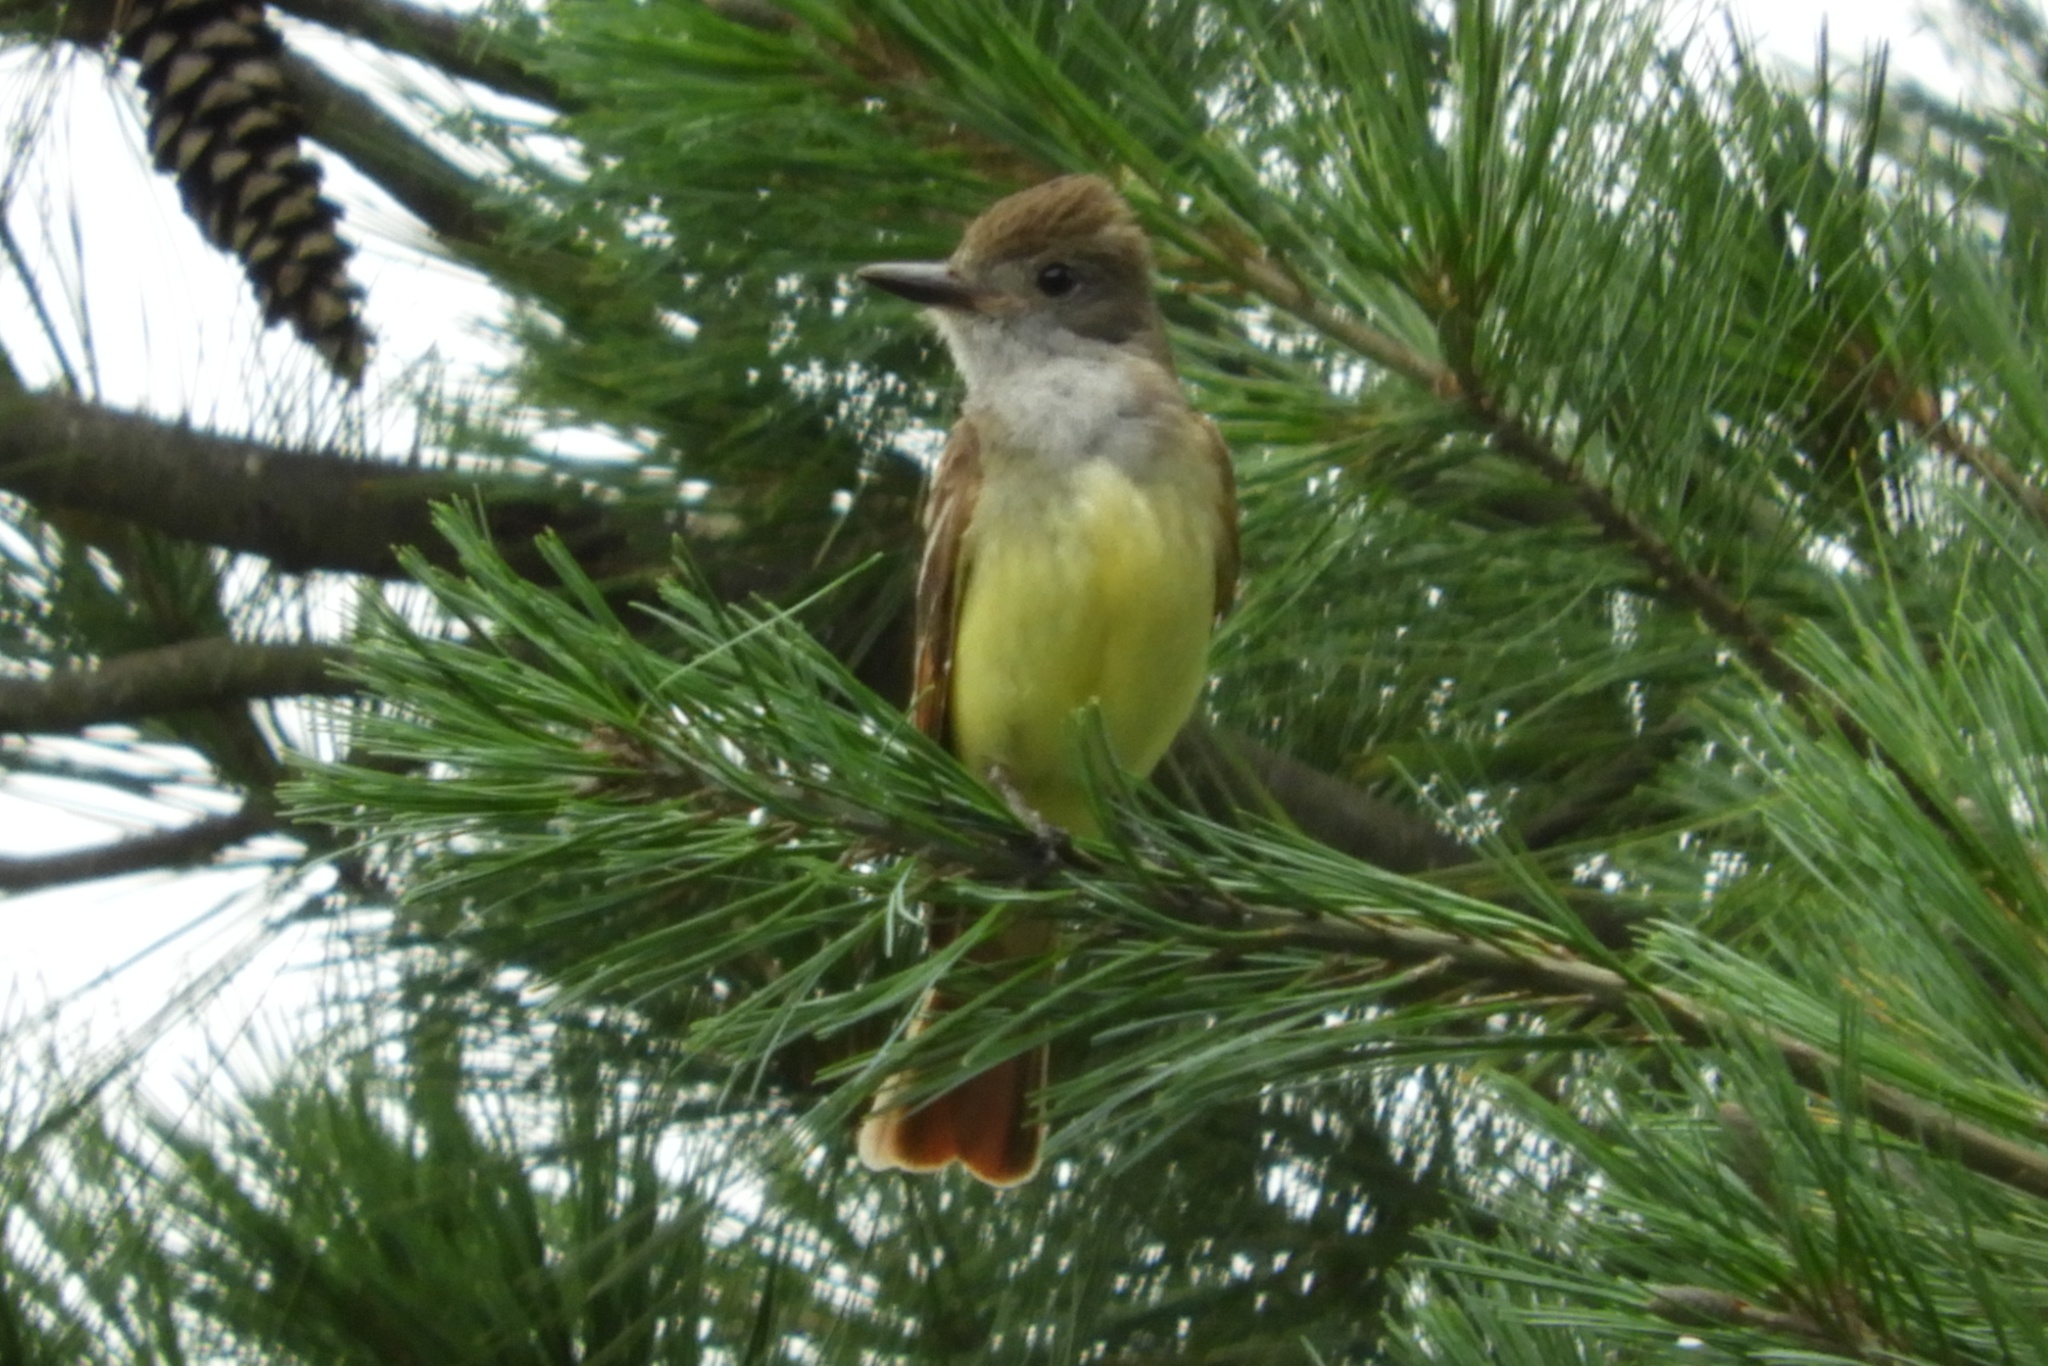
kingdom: Animalia
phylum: Chordata
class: Aves
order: Passeriformes
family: Tyrannidae
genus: Myiarchus
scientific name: Myiarchus crinitus
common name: Great crested flycatcher
